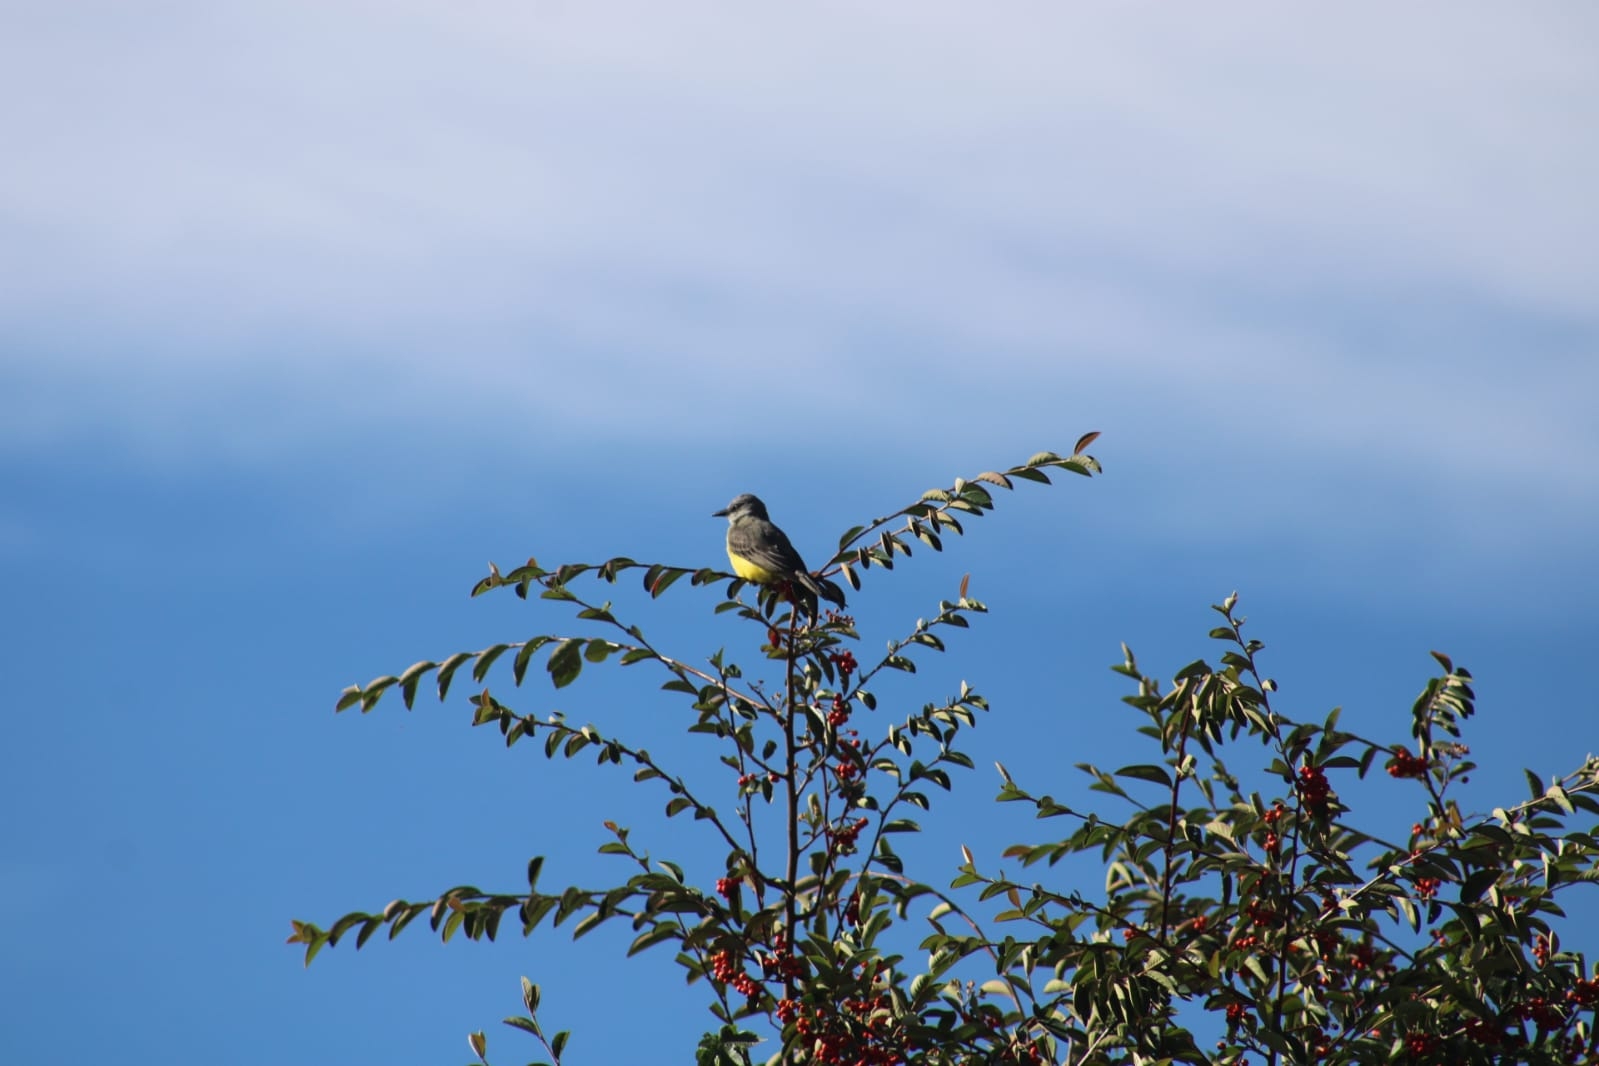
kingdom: Animalia
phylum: Chordata
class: Aves
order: Passeriformes
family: Tyrannidae
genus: Tyrannus
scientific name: Tyrannus melancholicus
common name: Tropical kingbird
